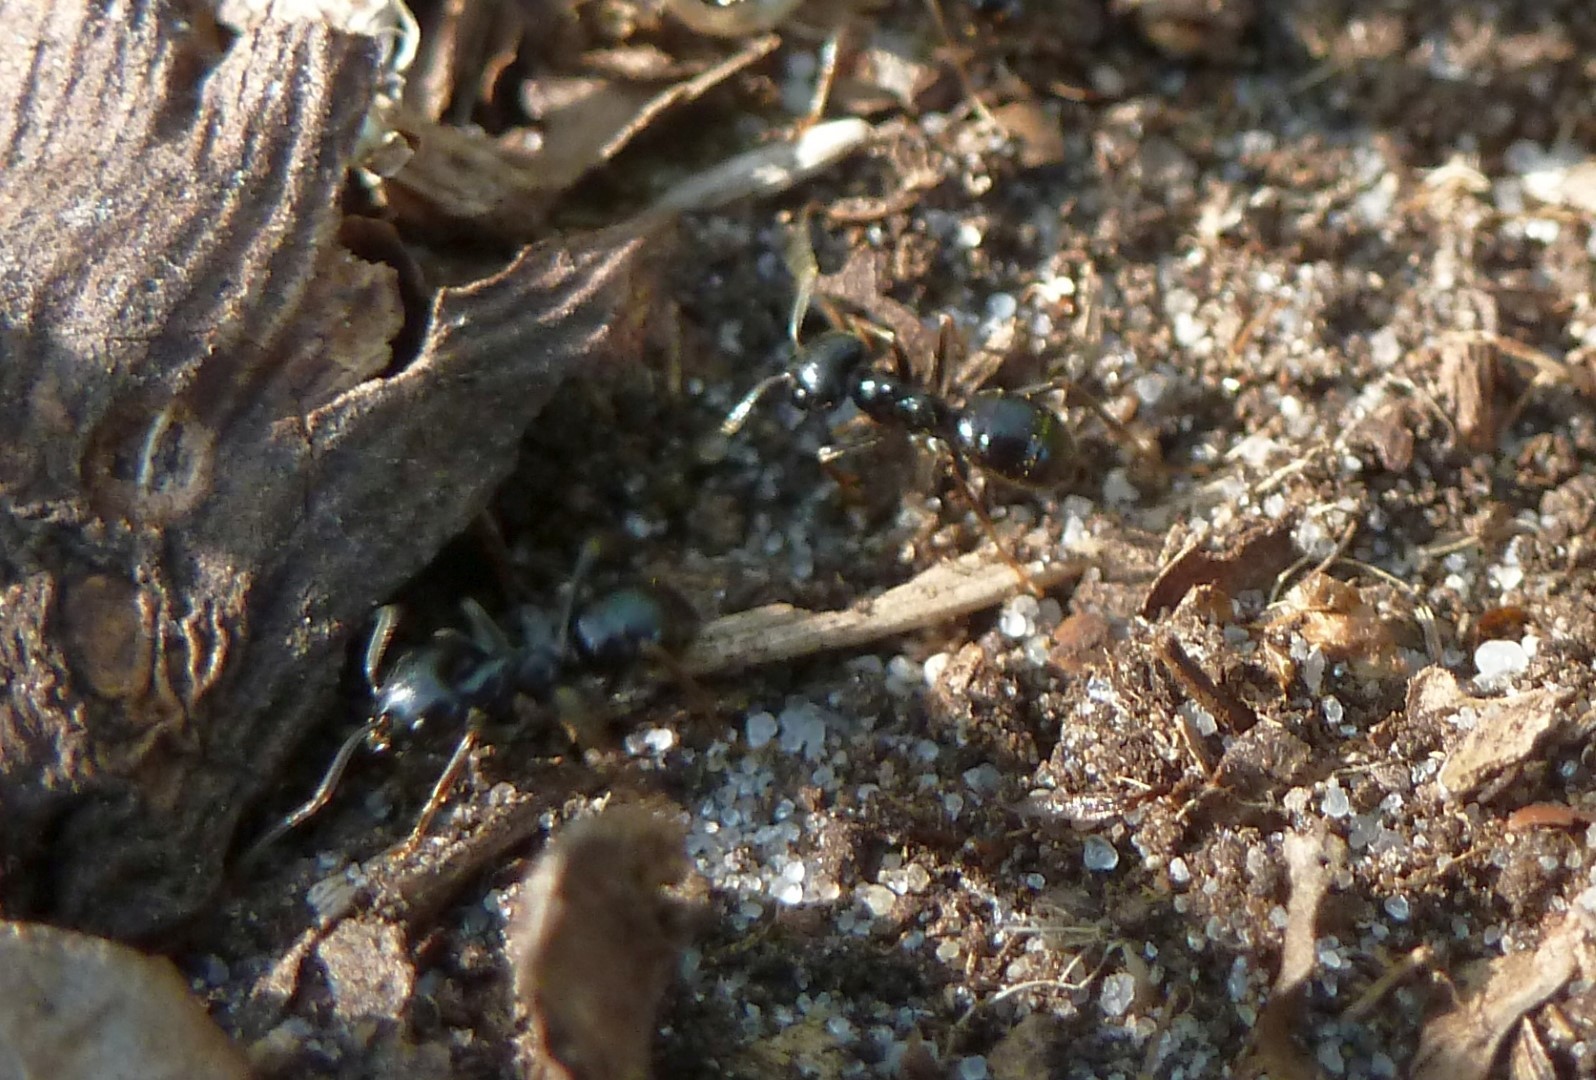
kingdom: Animalia
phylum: Arthropoda
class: Insecta
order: Hymenoptera
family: Formicidae
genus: Lasius
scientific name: Lasius fuliginosus
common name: Jet ant
